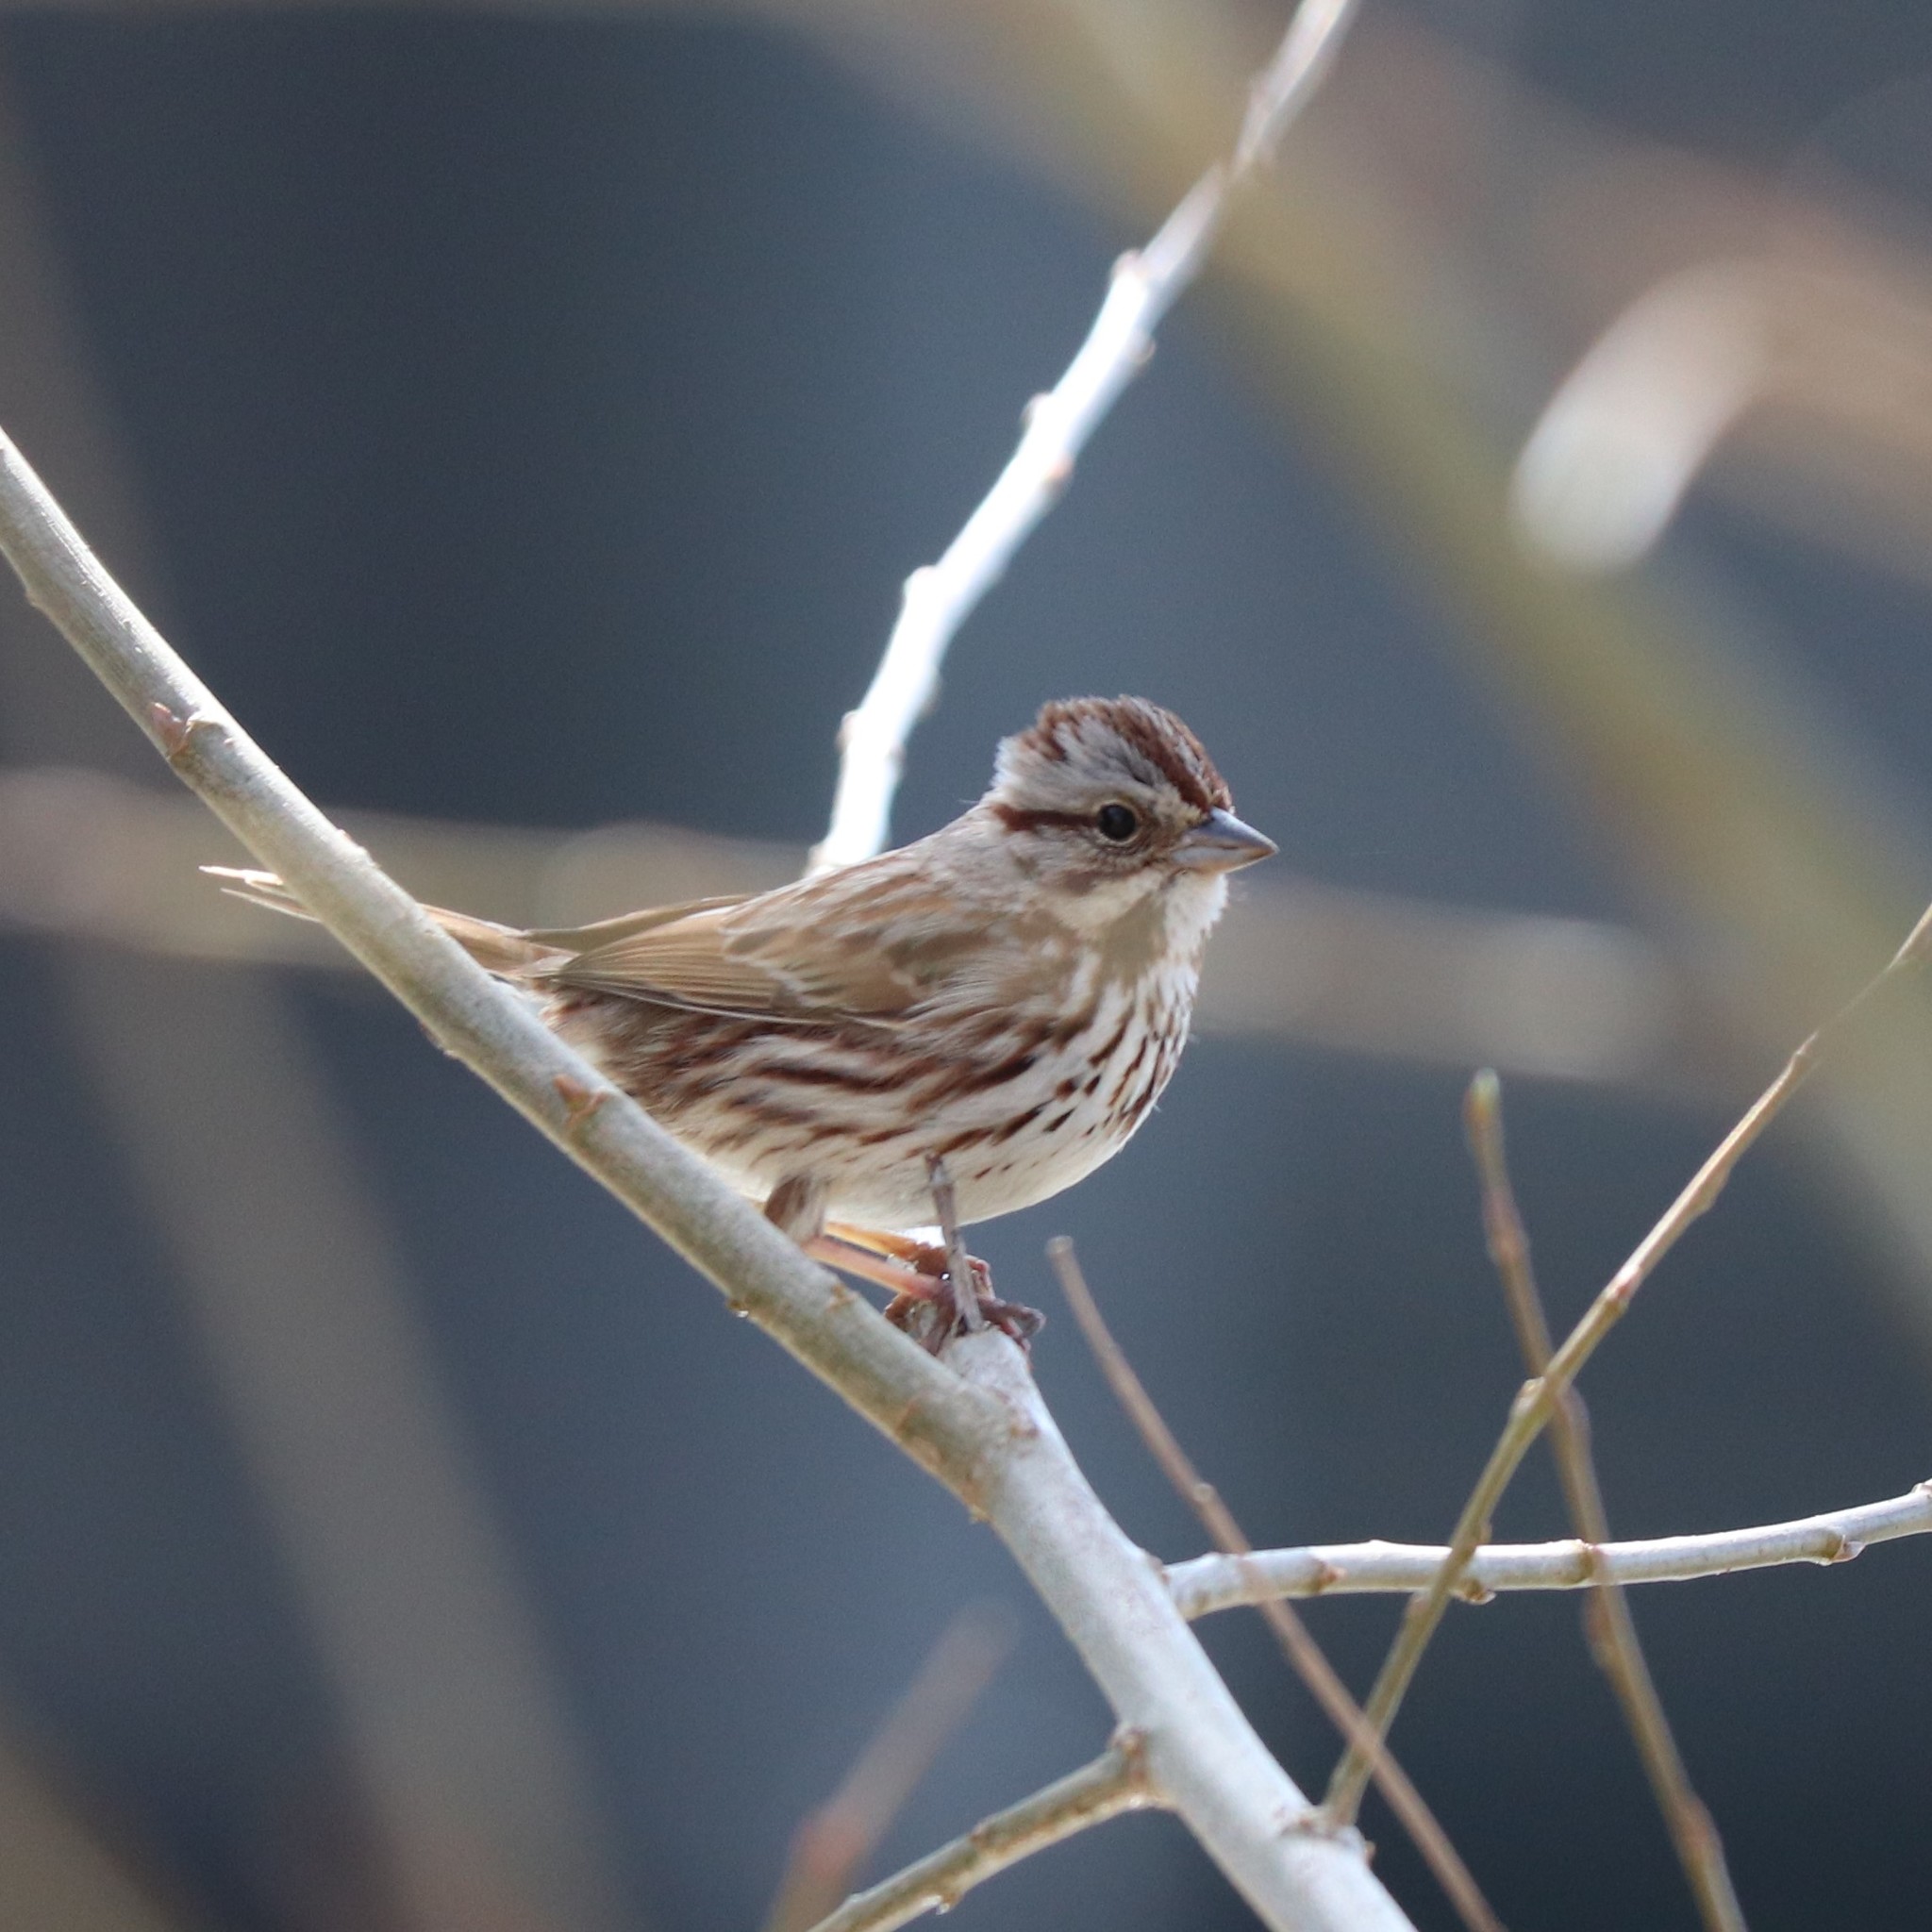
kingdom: Animalia
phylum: Chordata
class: Aves
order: Passeriformes
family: Passerellidae
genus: Melospiza
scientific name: Melospiza melodia
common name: Song sparrow
